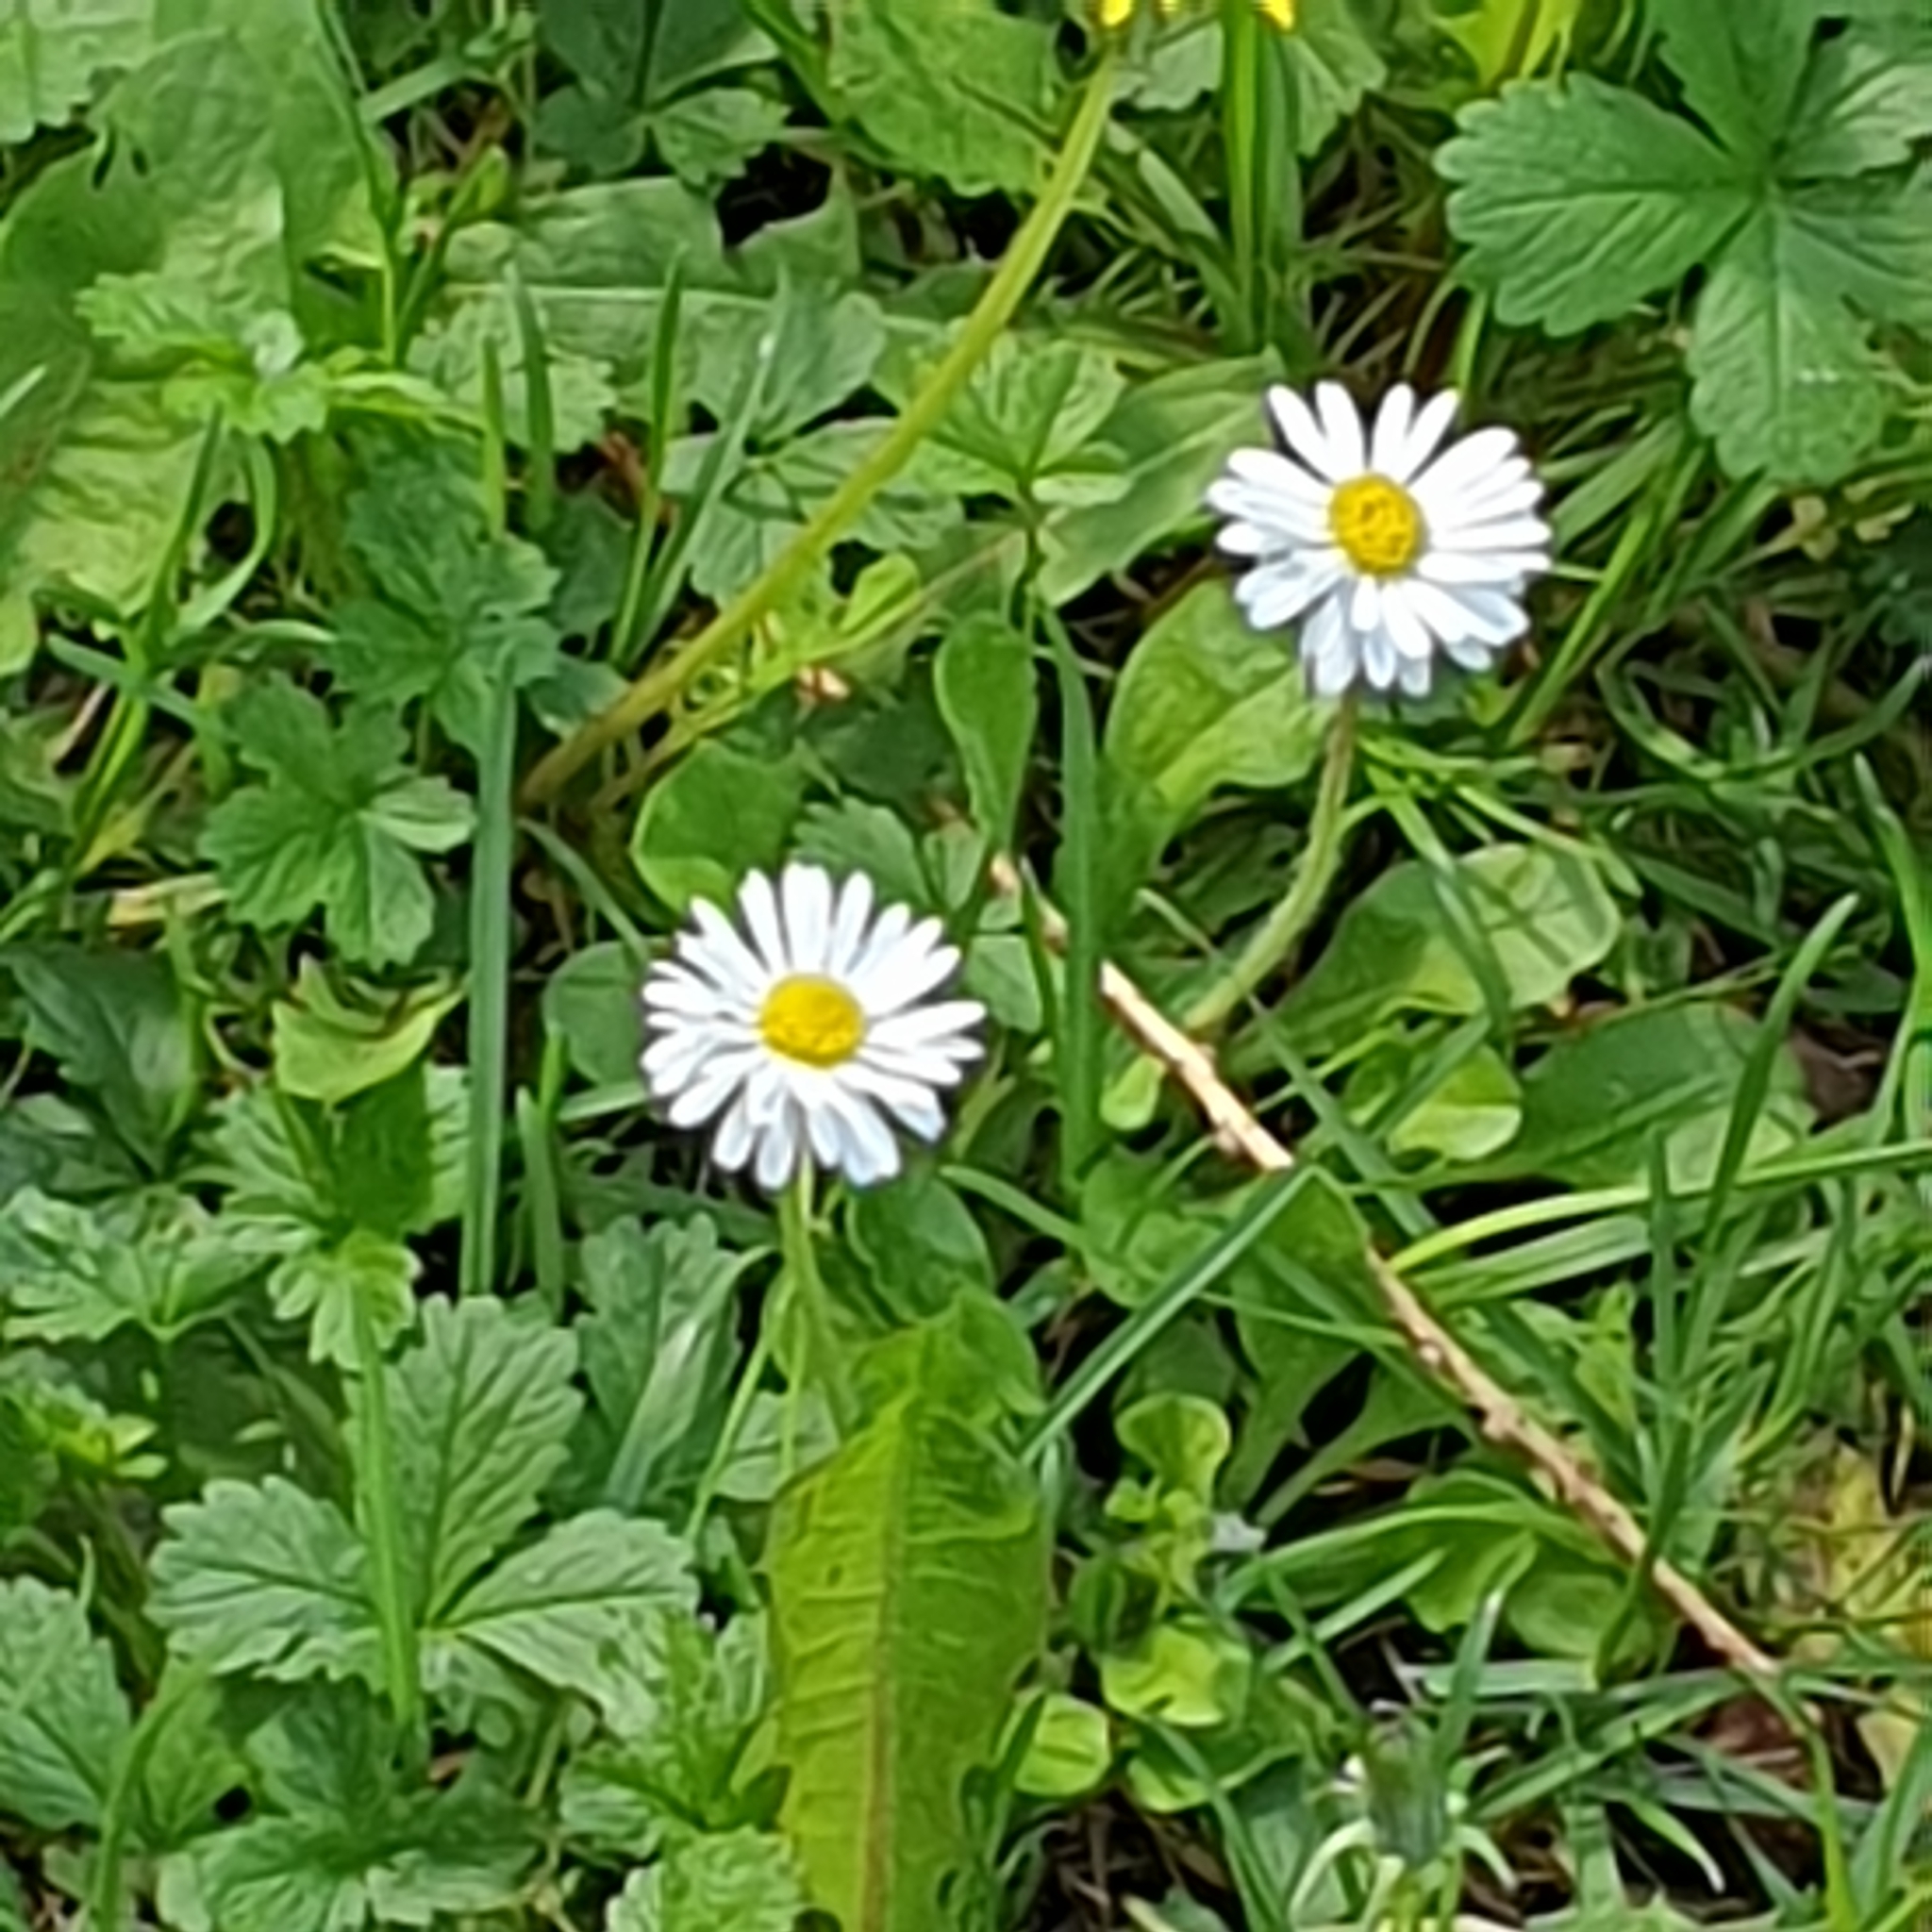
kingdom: Plantae
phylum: Tracheophyta
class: Magnoliopsida
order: Asterales
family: Asteraceae
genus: Bellis
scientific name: Bellis perennis
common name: Lawndaisy
